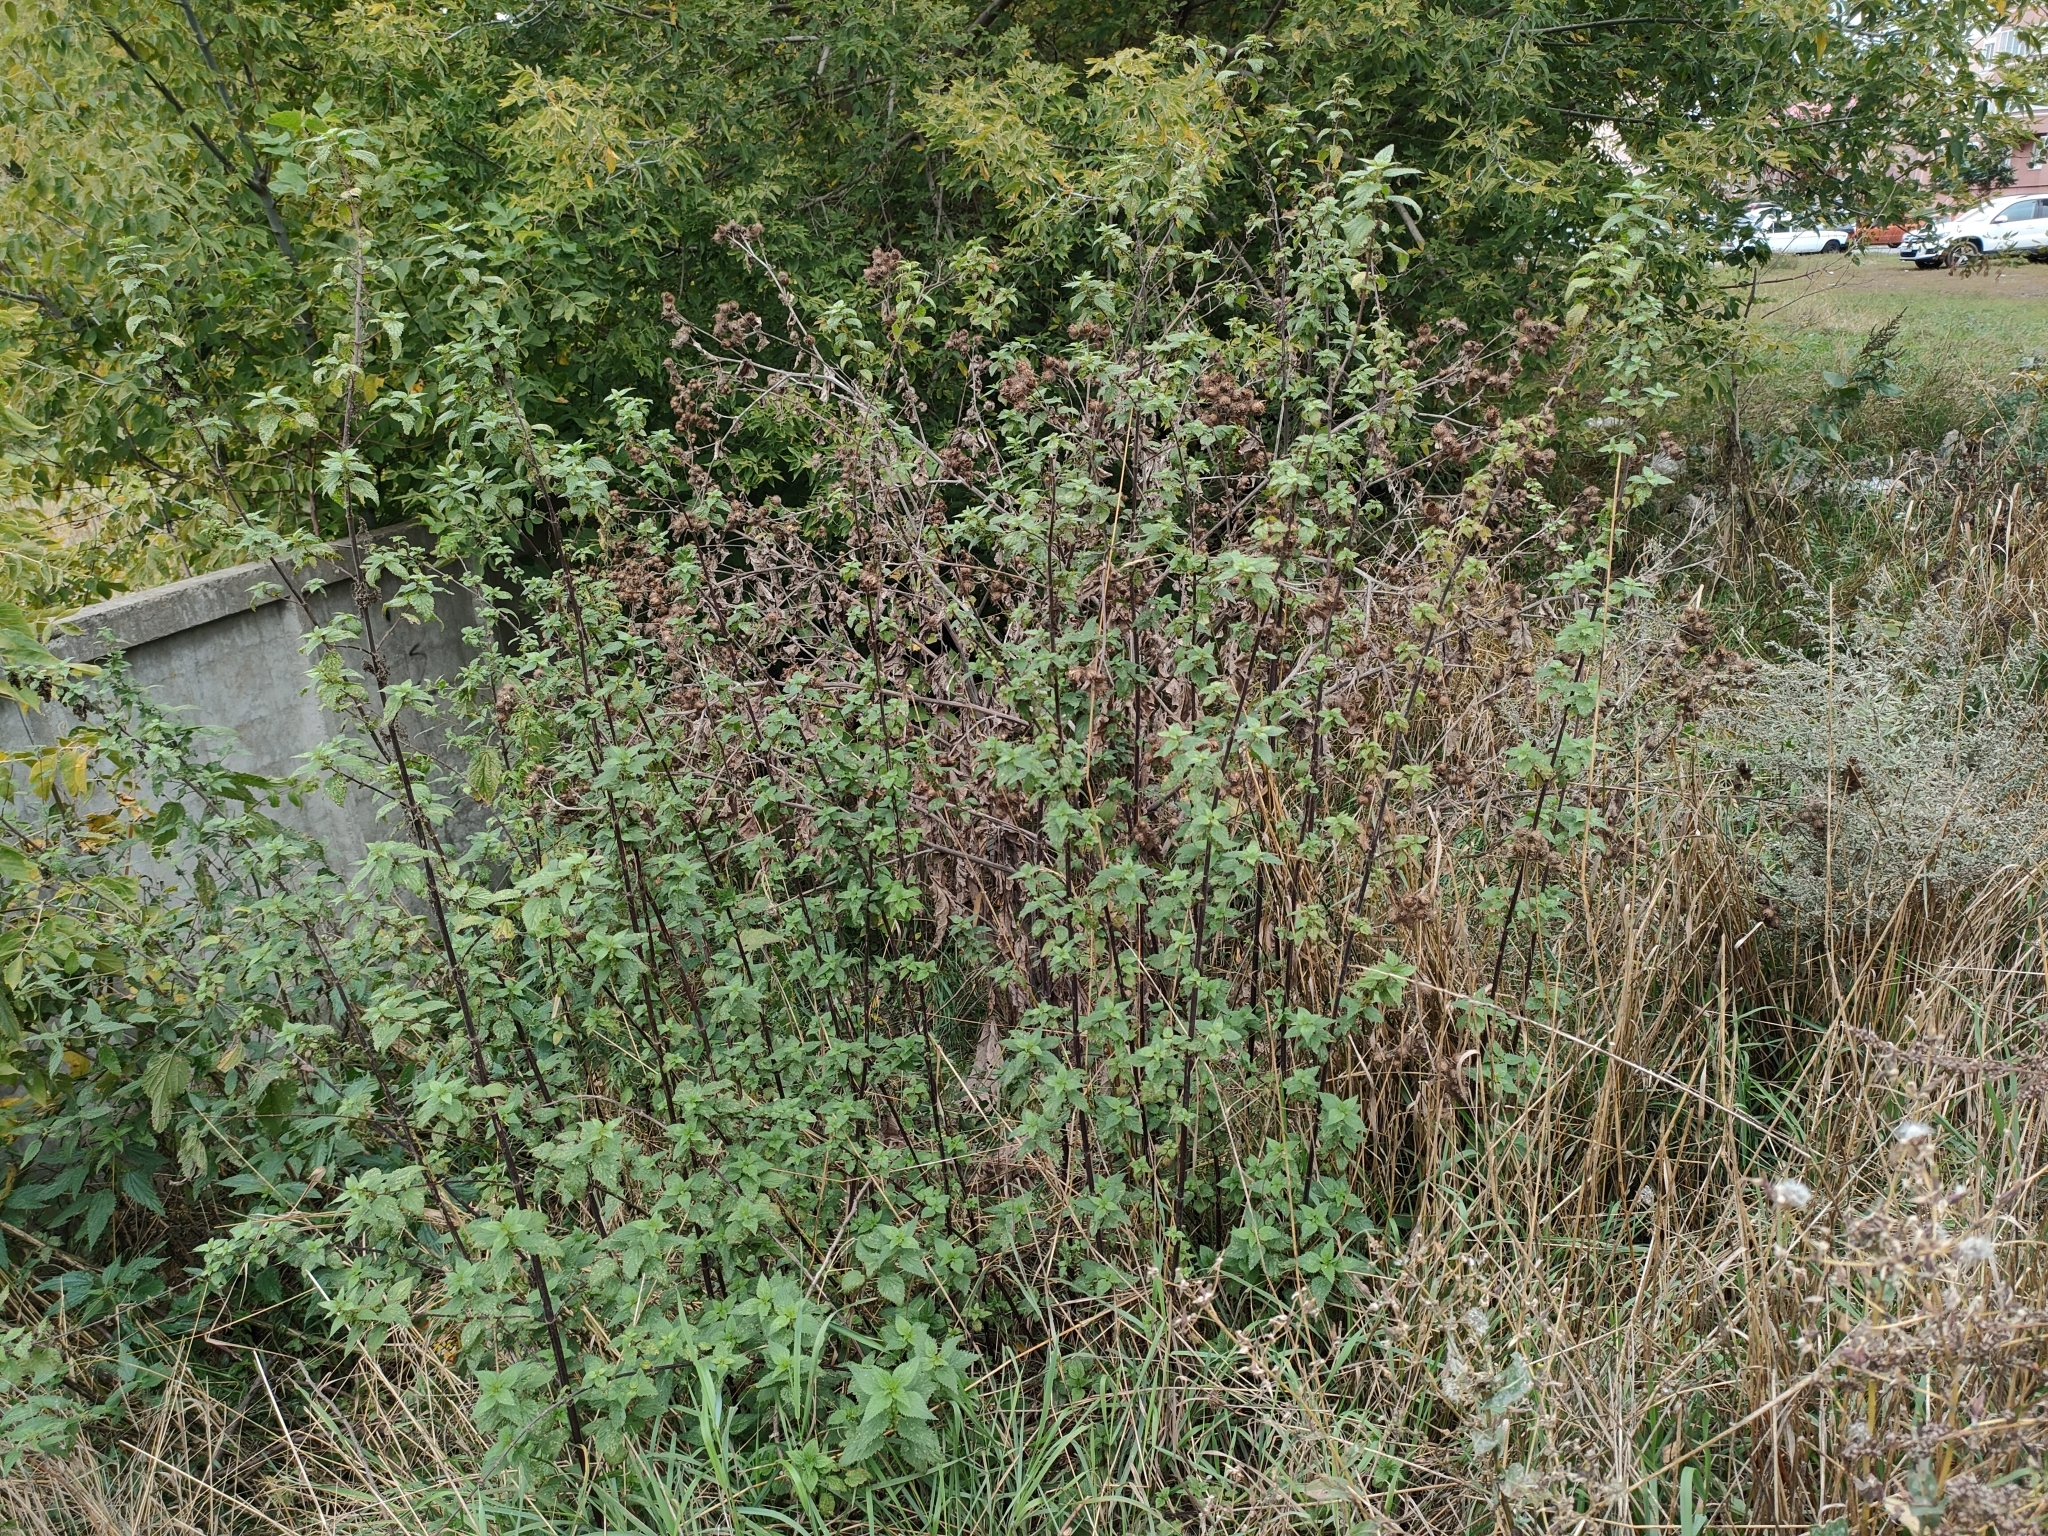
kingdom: Plantae
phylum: Tracheophyta
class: Magnoliopsida
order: Rosales
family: Urticaceae
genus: Urtica
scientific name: Urtica dioica
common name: Common nettle
